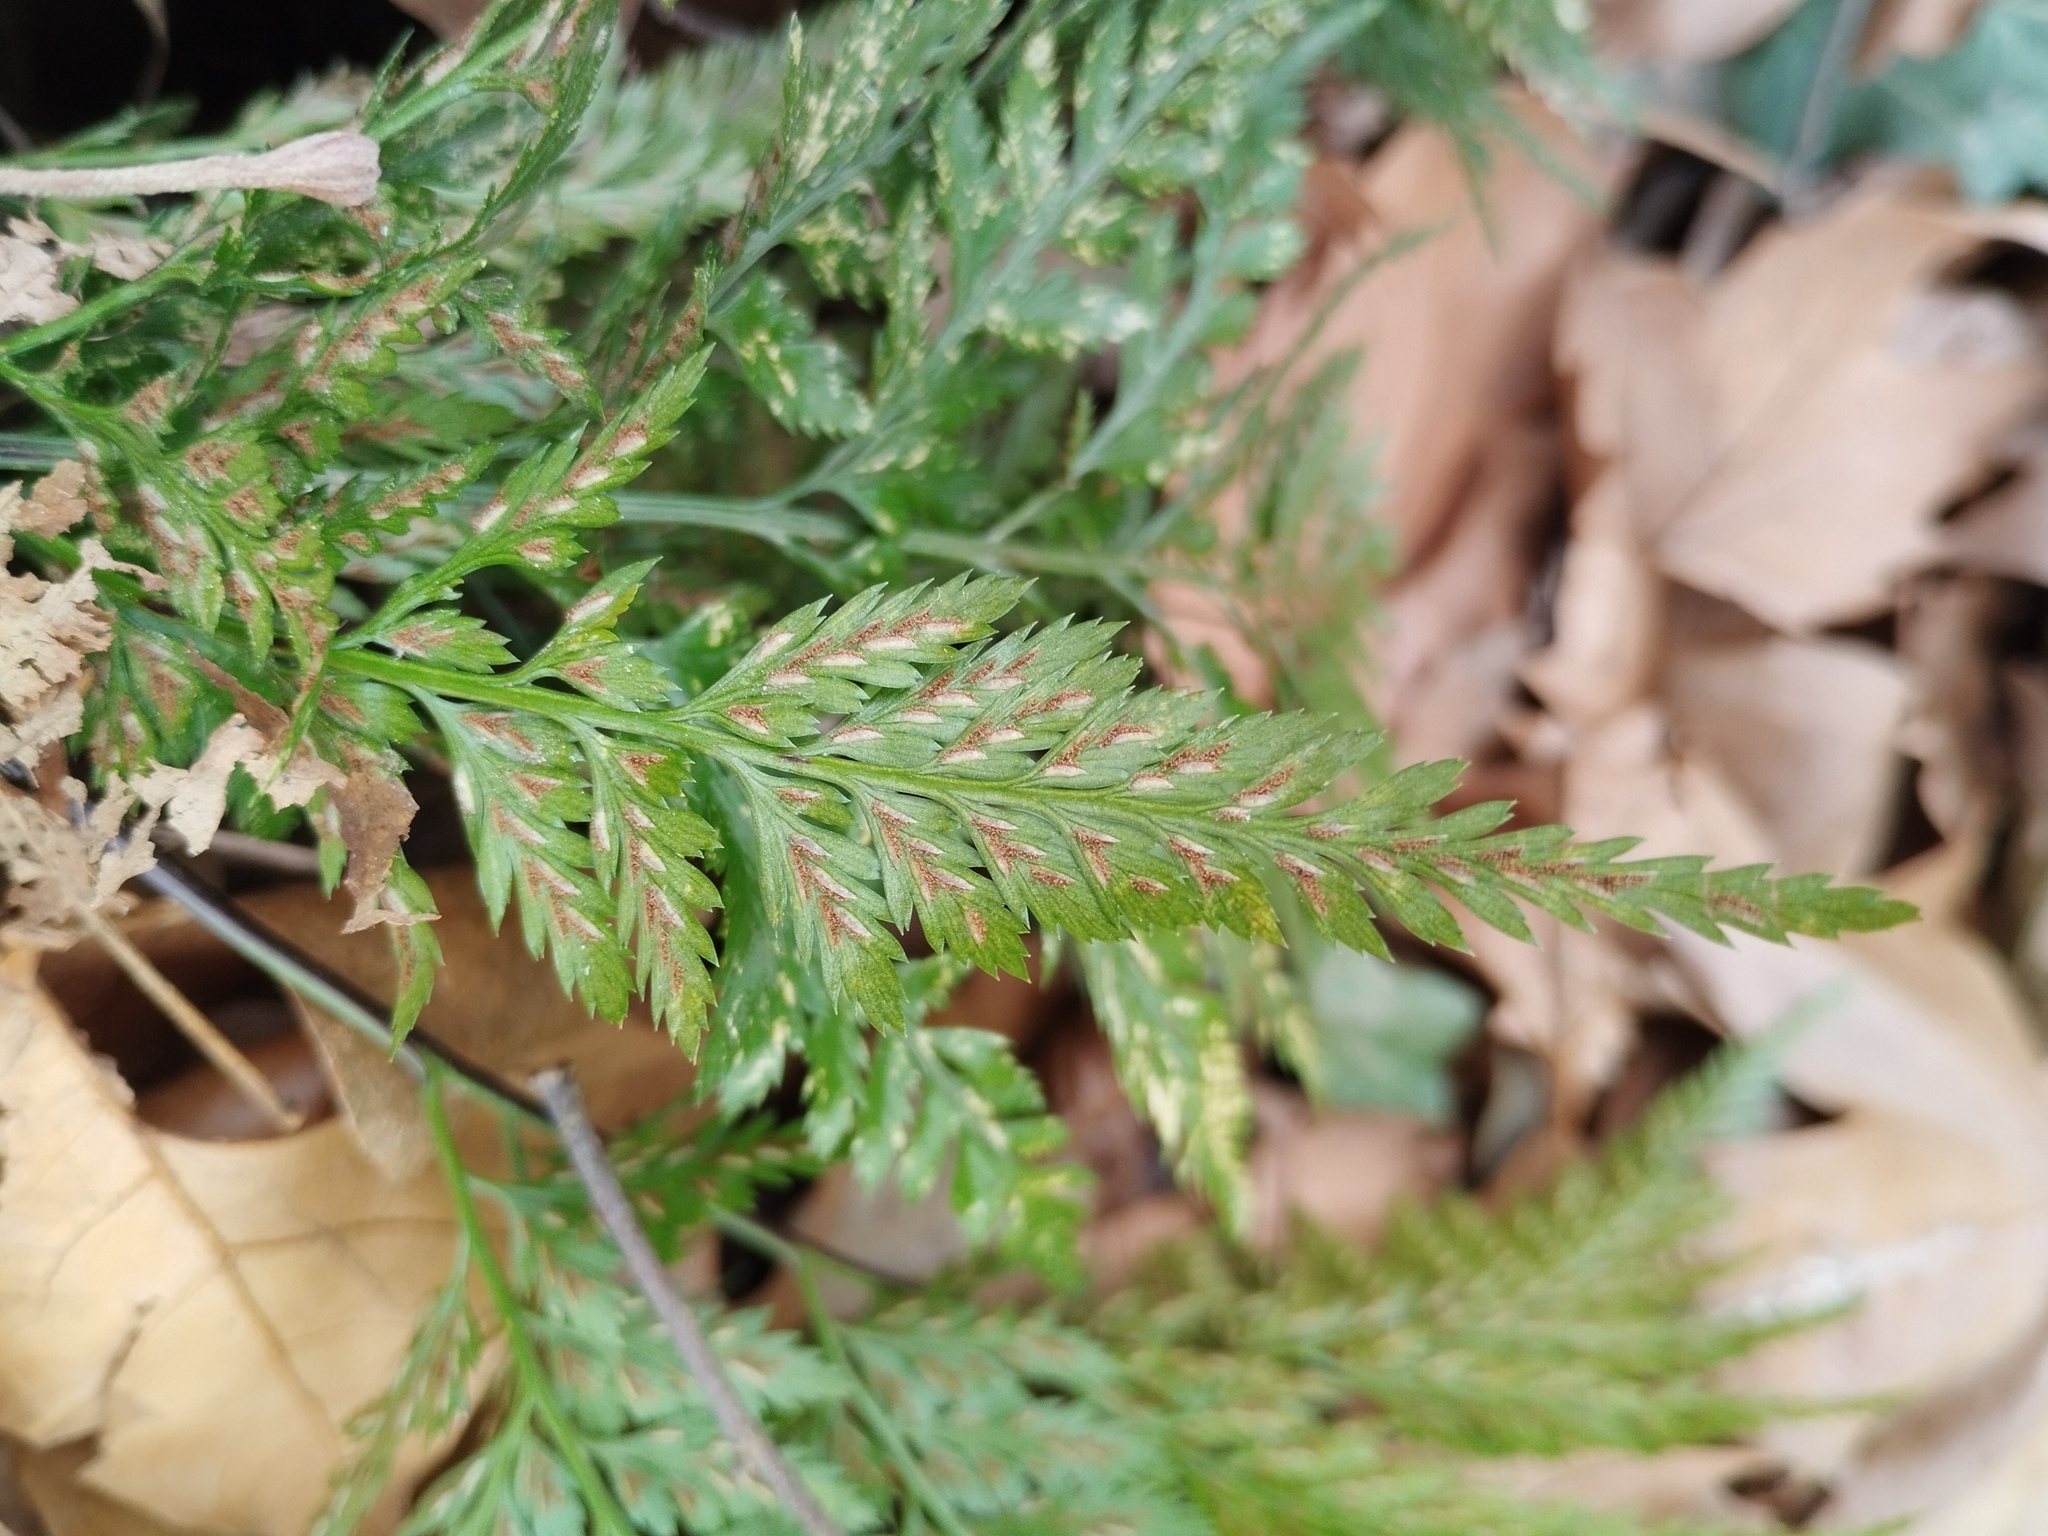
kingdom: Plantae
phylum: Tracheophyta
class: Polypodiopsida
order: Polypodiales
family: Aspleniaceae
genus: Asplenium
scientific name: Asplenium onopteris
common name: Irish spleenwort
